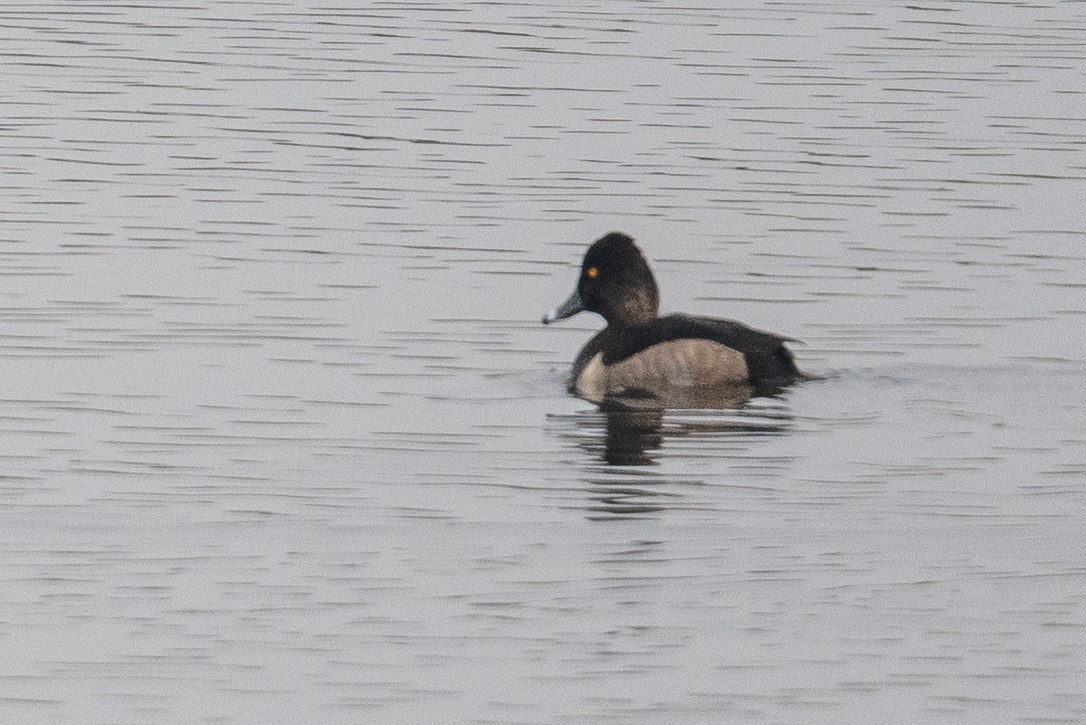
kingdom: Animalia
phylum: Chordata
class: Aves
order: Anseriformes
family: Anatidae
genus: Aythya
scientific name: Aythya collaris
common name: Ring-necked duck
